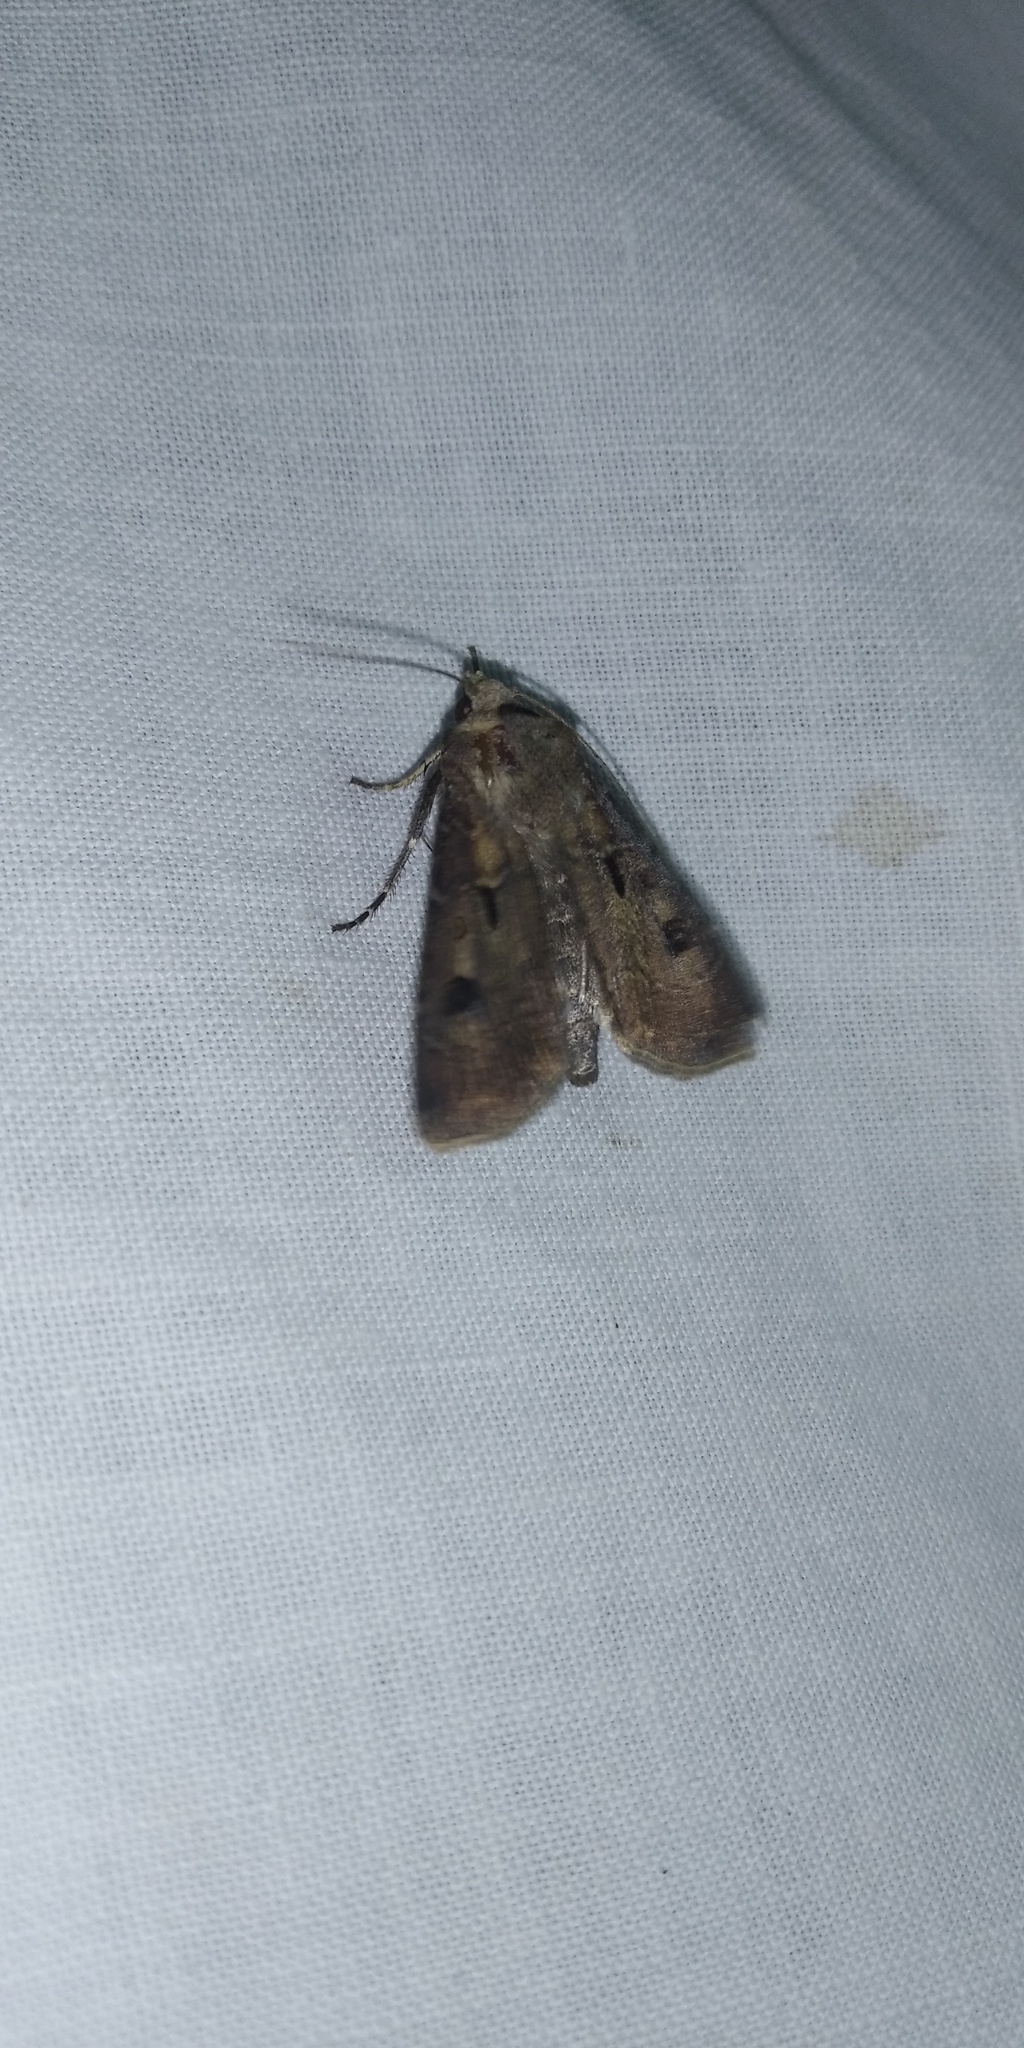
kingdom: Animalia
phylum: Arthropoda
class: Insecta
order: Lepidoptera
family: Noctuidae
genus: Agrotis
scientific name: Agrotis exclamationis
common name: Heart and dart
